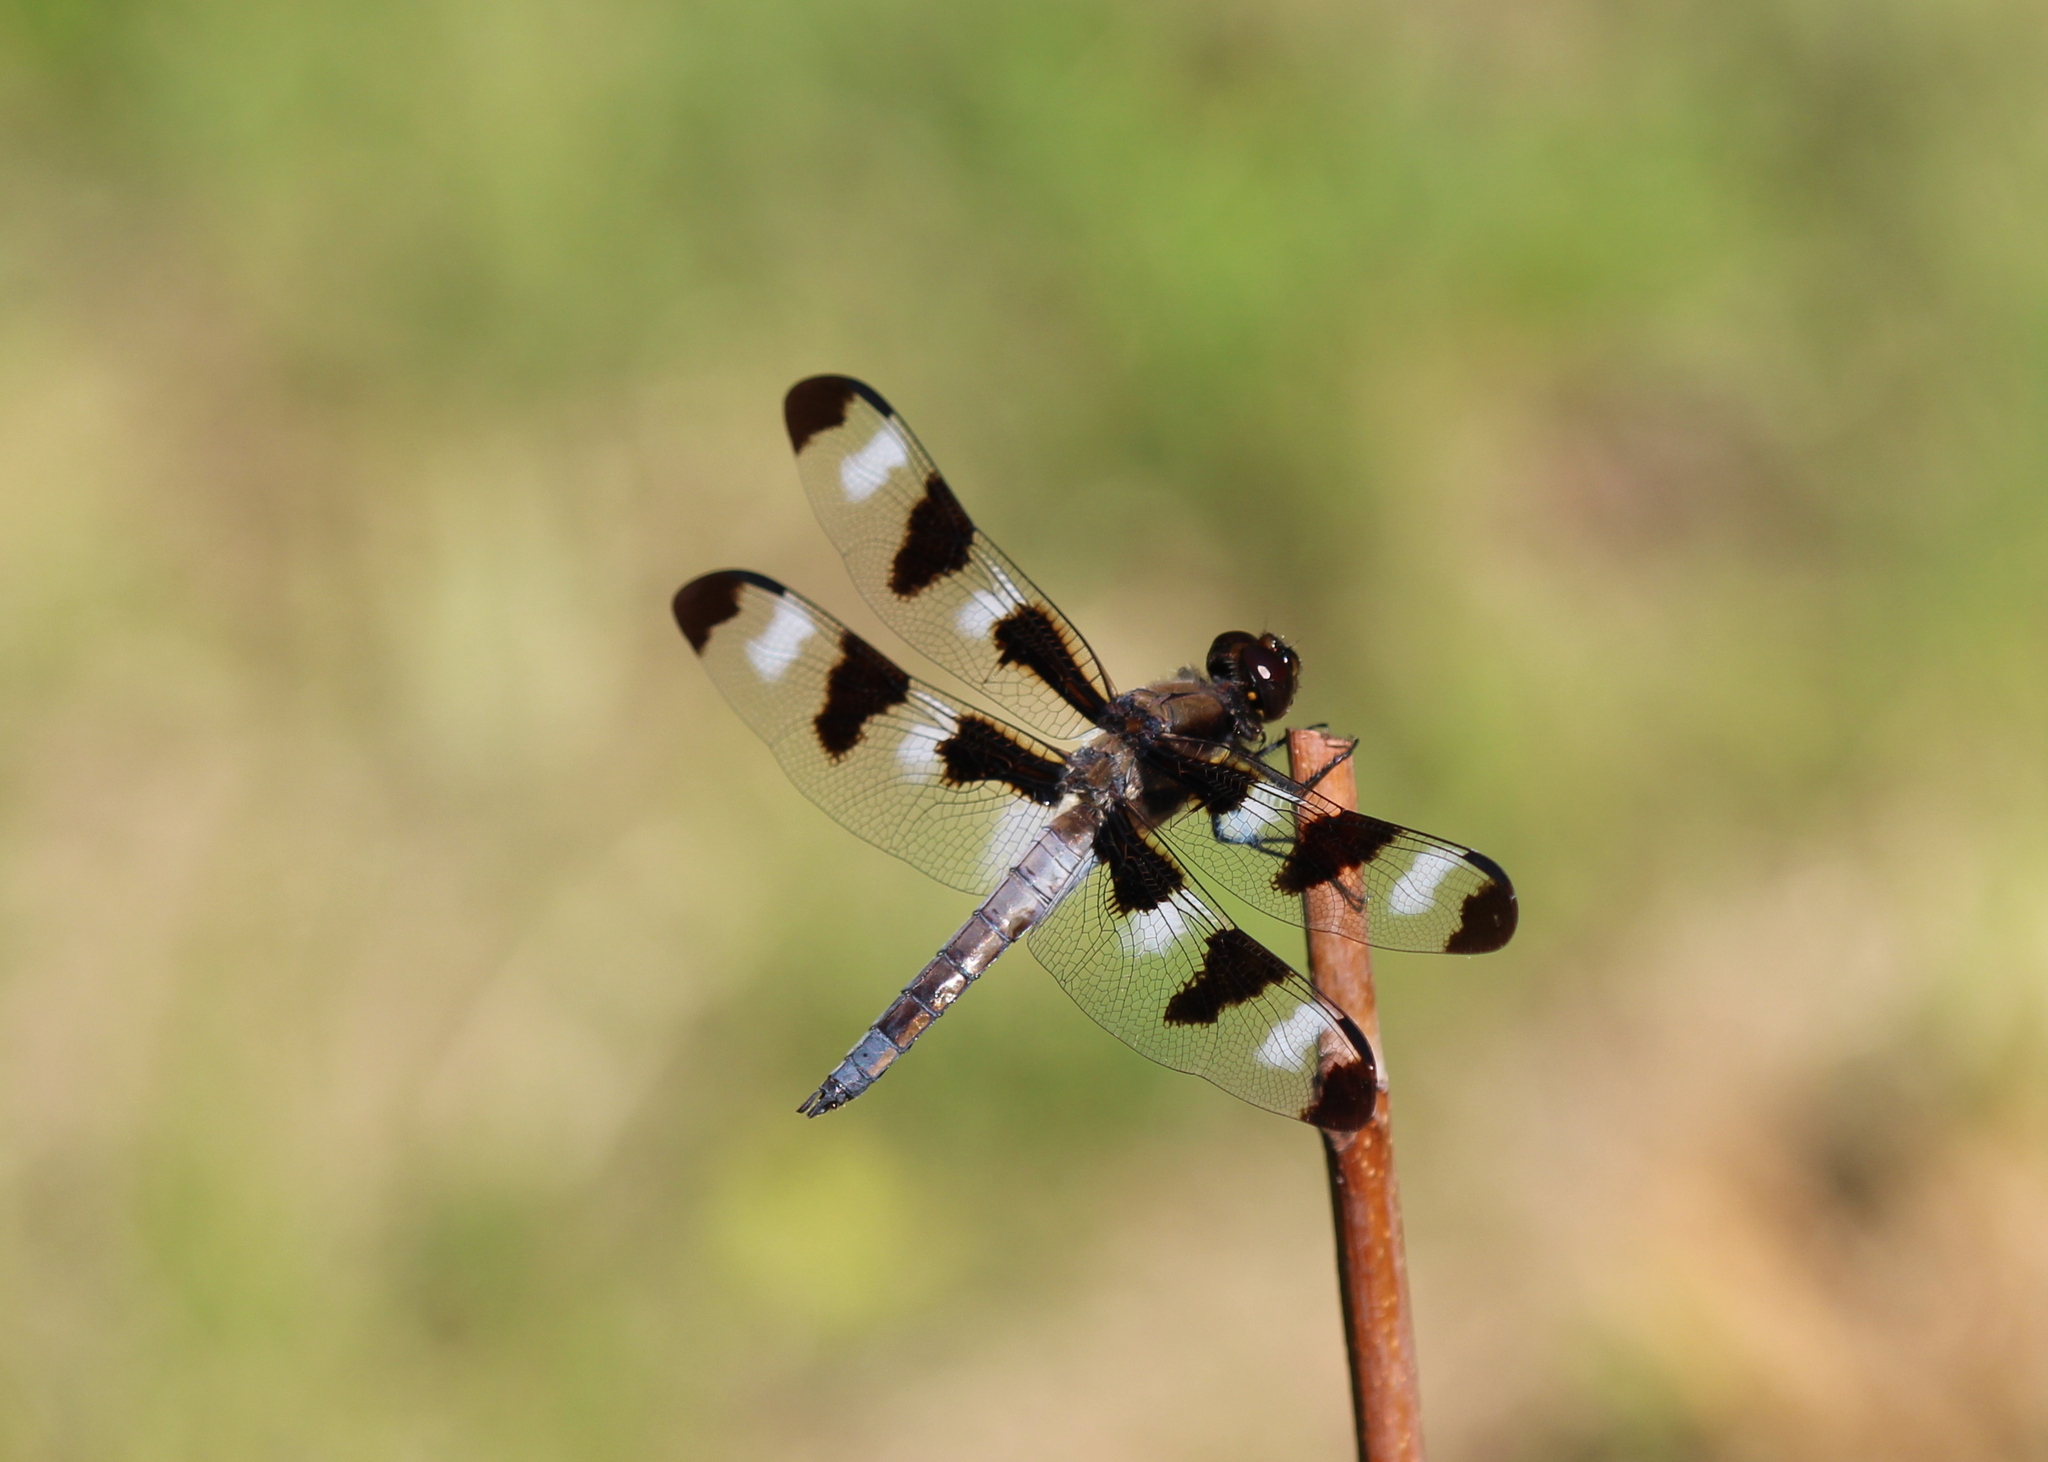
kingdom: Animalia
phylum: Arthropoda
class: Insecta
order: Odonata
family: Libellulidae
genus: Libellula
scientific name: Libellula pulchella
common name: Twelve-spotted skimmer
